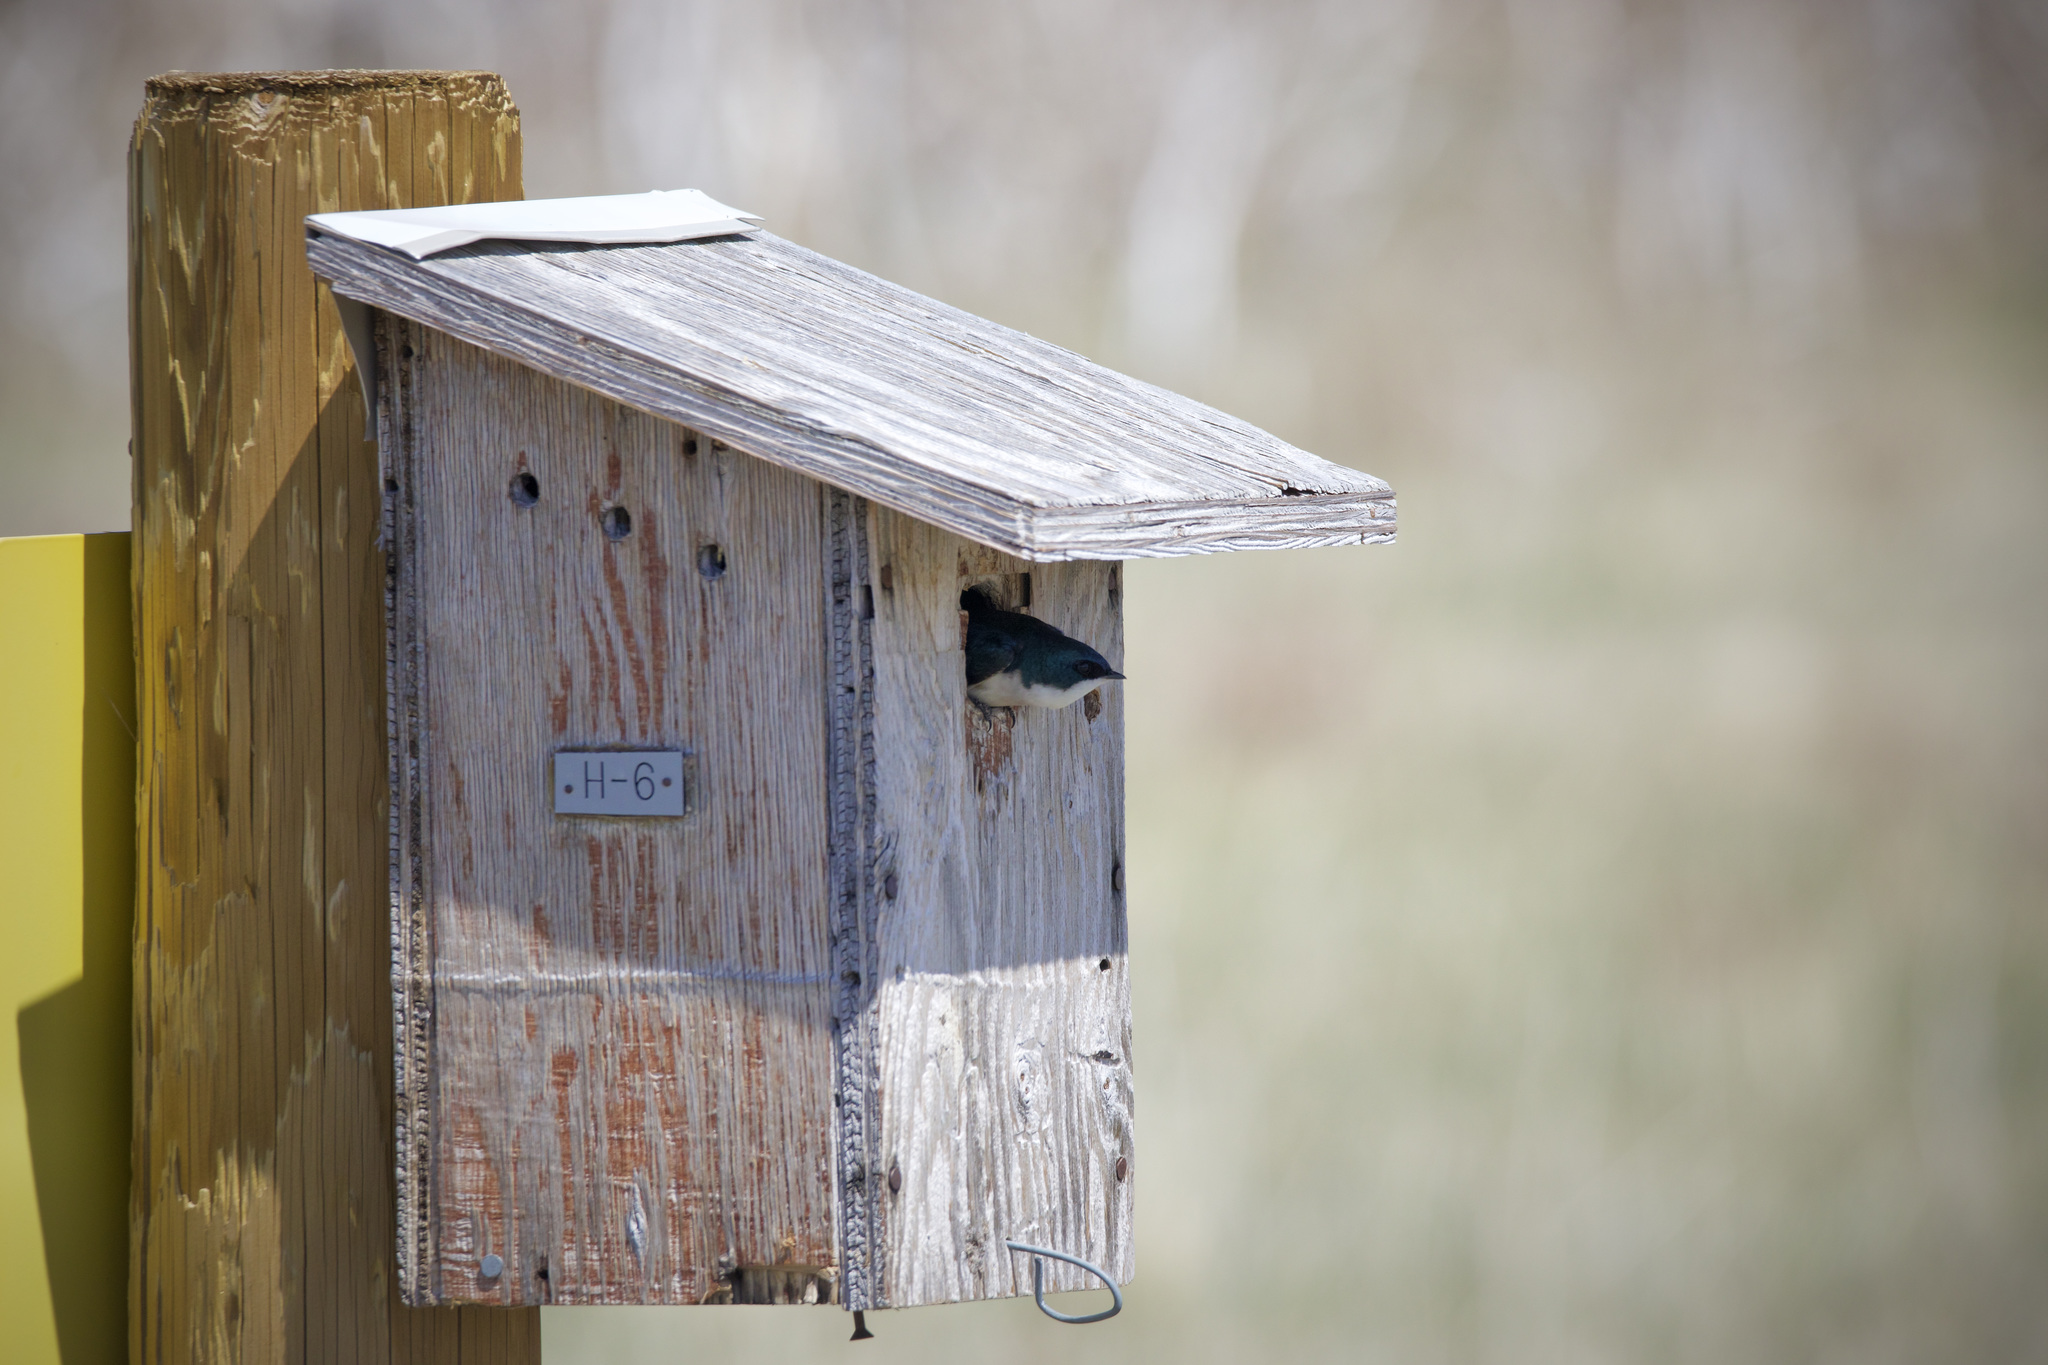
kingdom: Animalia
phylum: Chordata
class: Aves
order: Passeriformes
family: Hirundinidae
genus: Tachycineta
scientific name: Tachycineta bicolor
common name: Tree swallow
